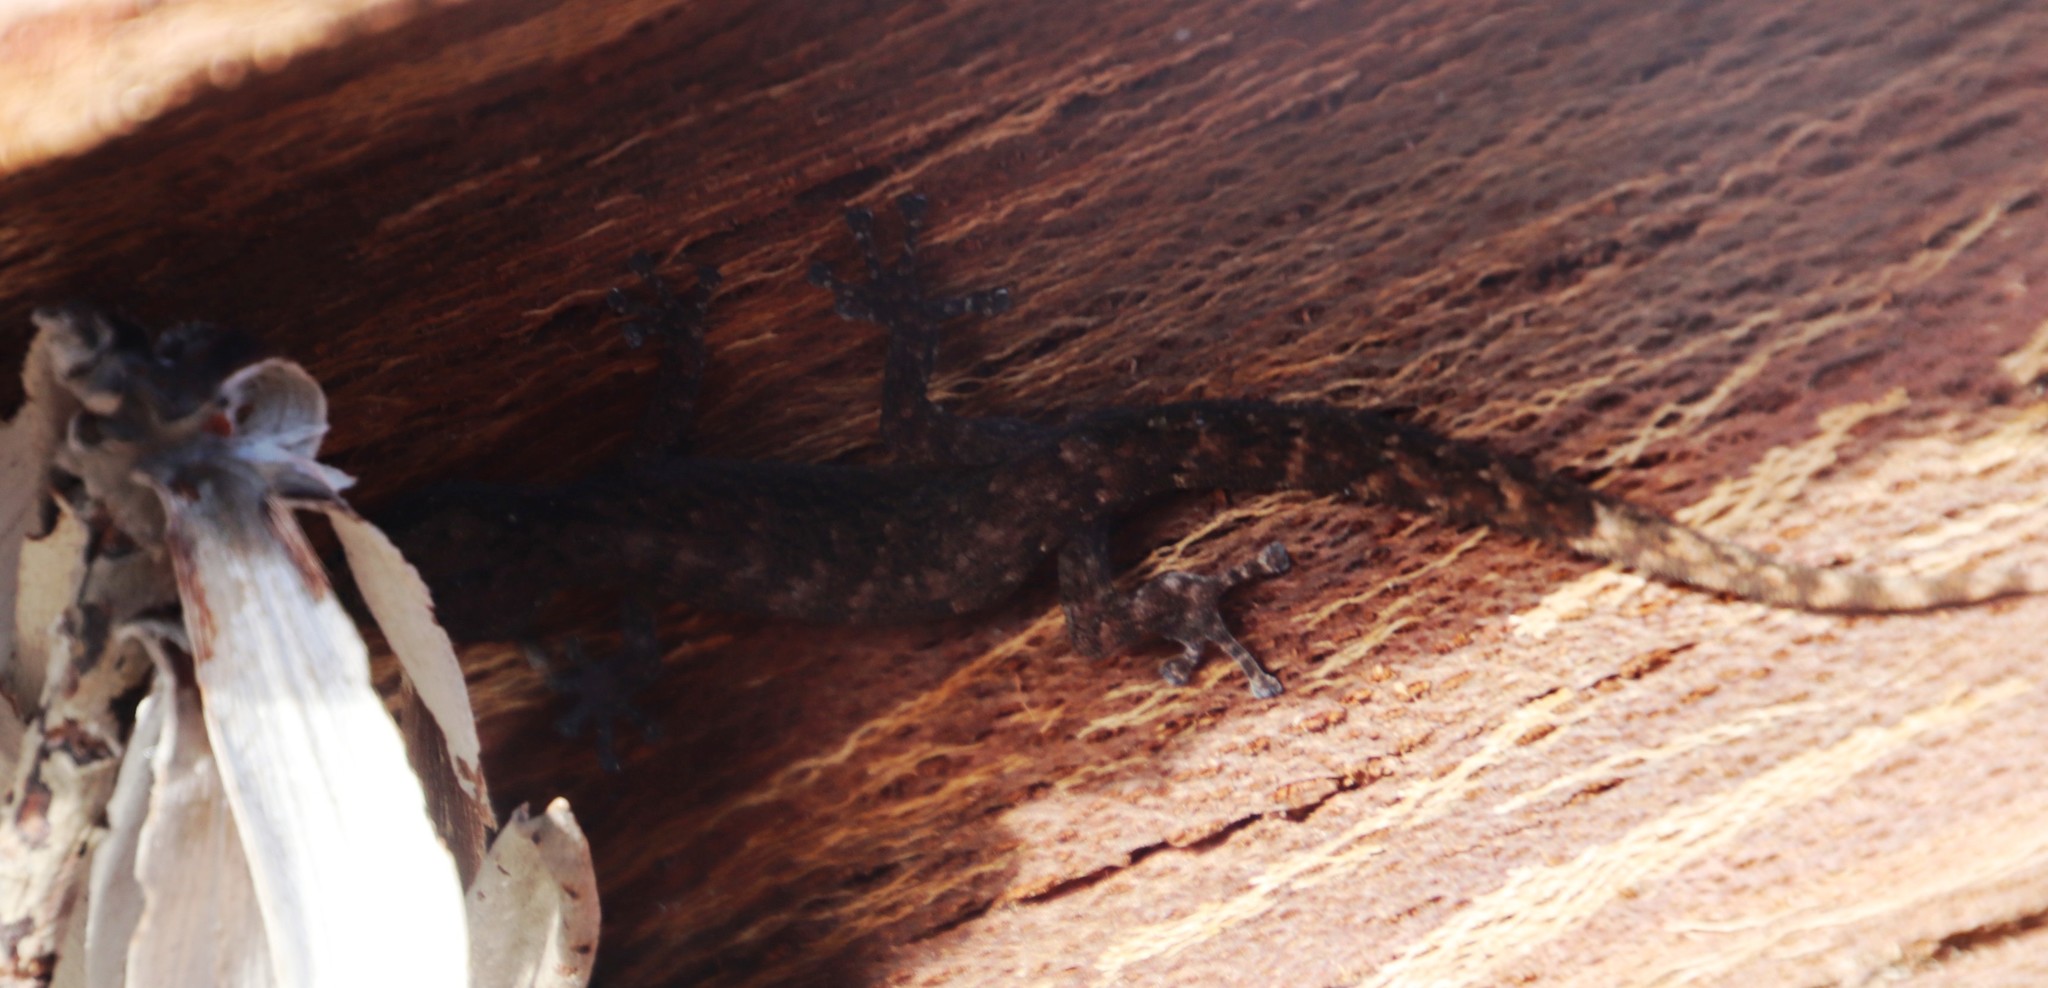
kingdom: Animalia
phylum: Chordata
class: Squamata
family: Gekkonidae
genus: Afrogecko
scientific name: Afrogecko porphyreus
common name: Marbled leaf-toed gecko
